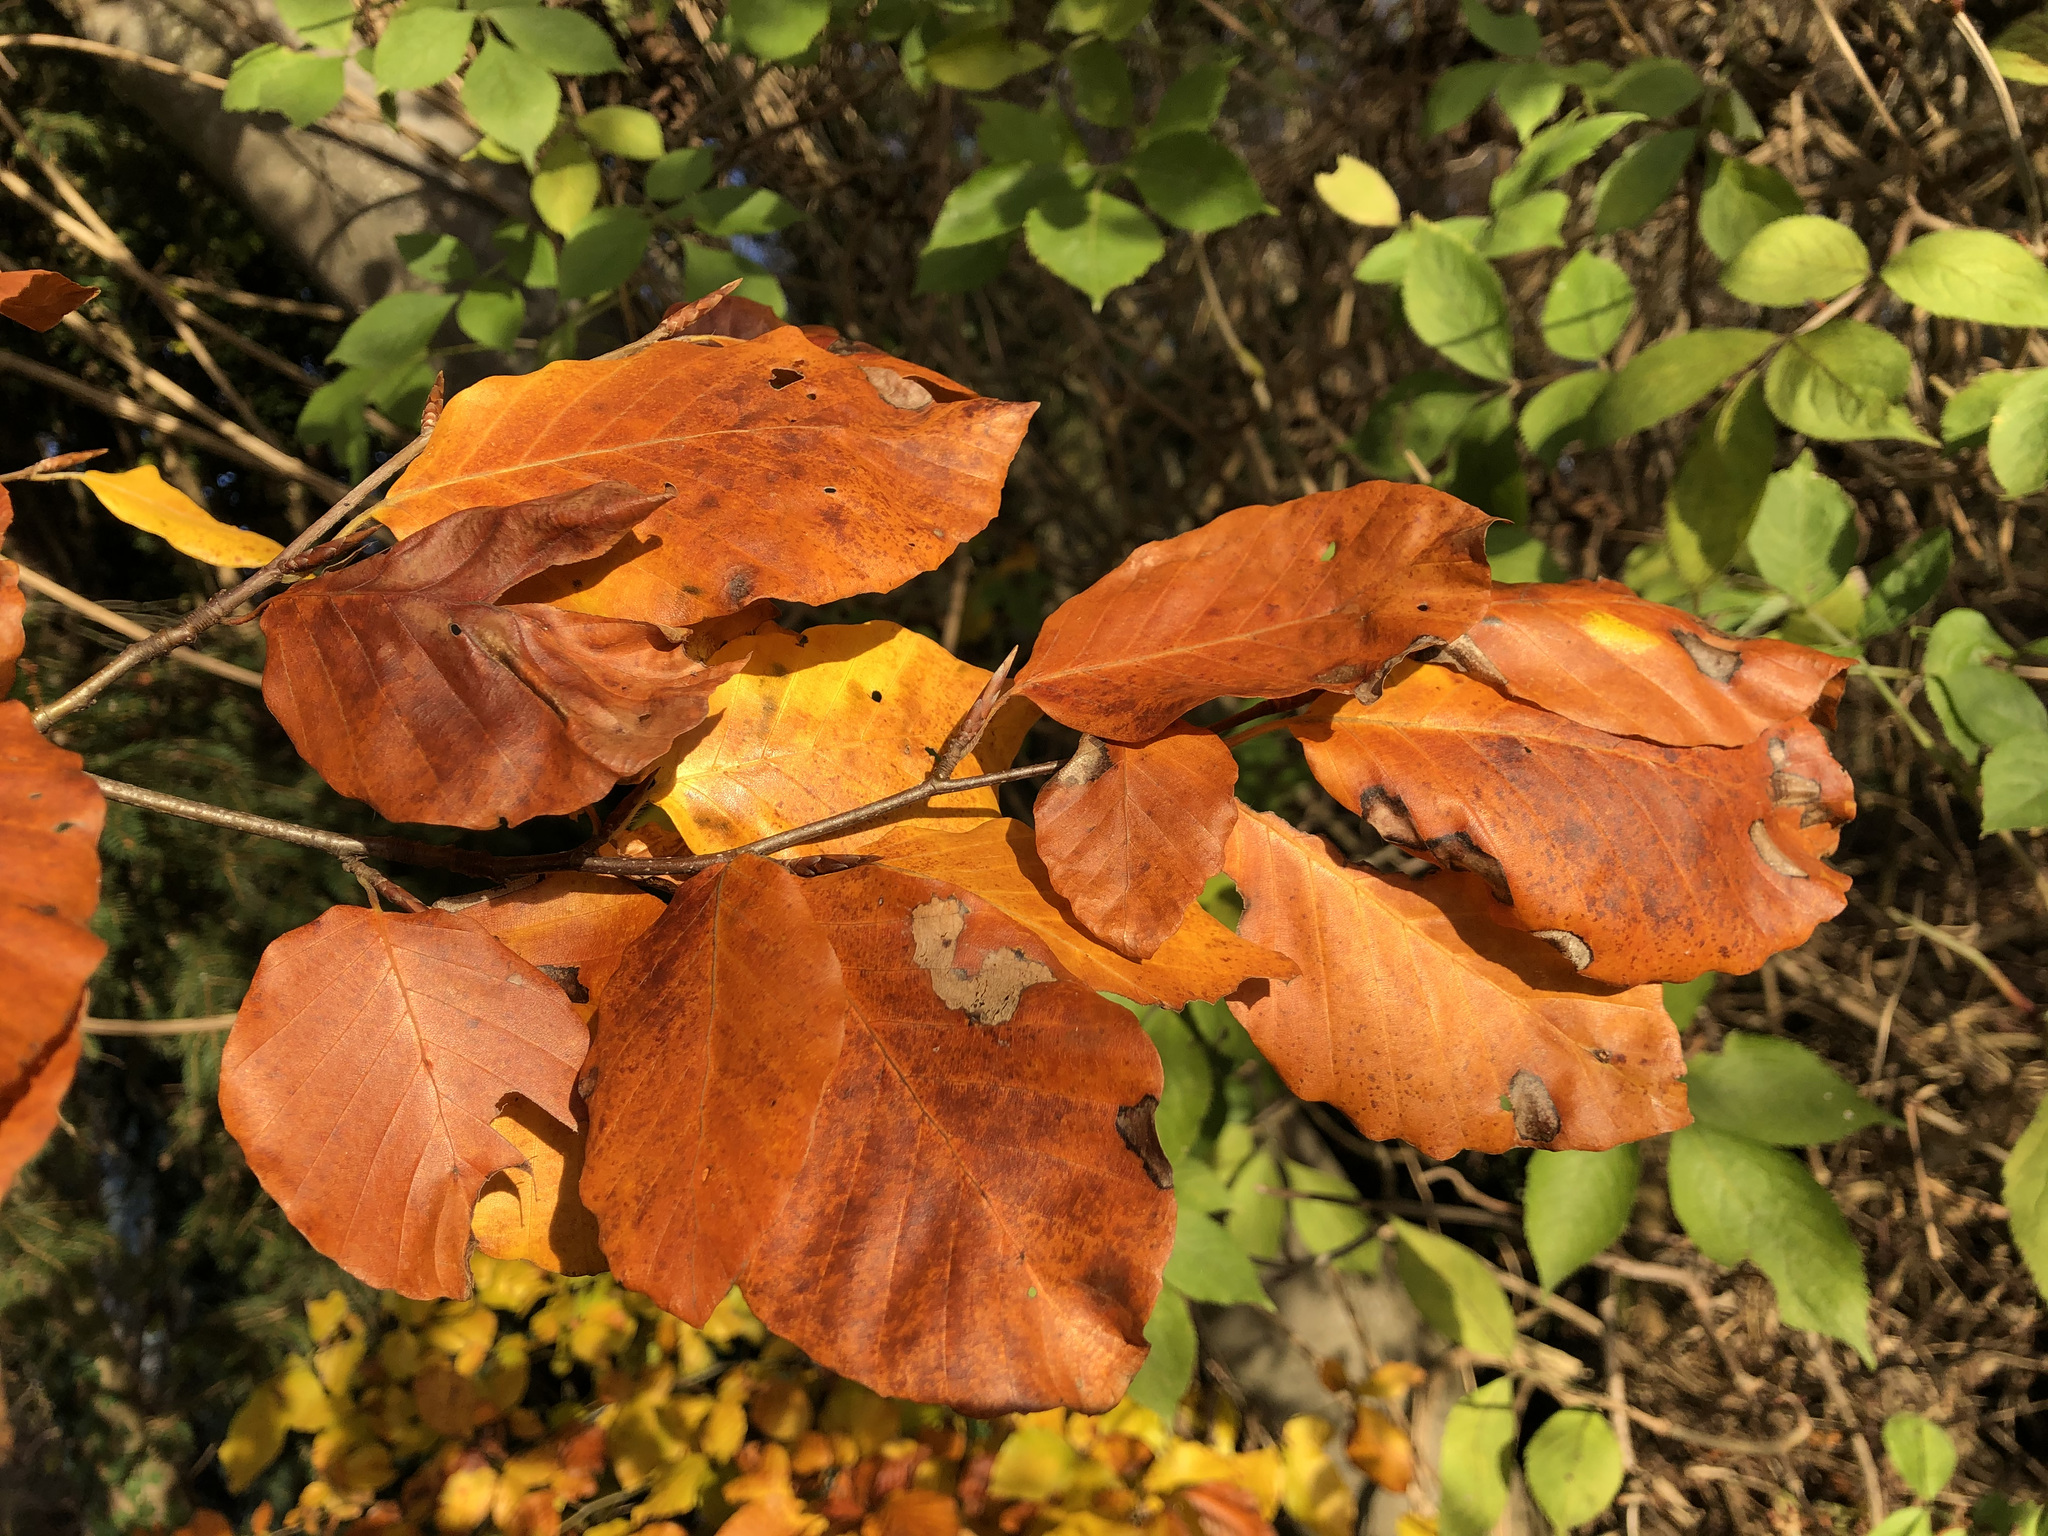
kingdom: Plantae
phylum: Tracheophyta
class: Magnoliopsida
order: Fagales
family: Fagaceae
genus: Fagus
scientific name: Fagus sylvatica
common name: Beech
